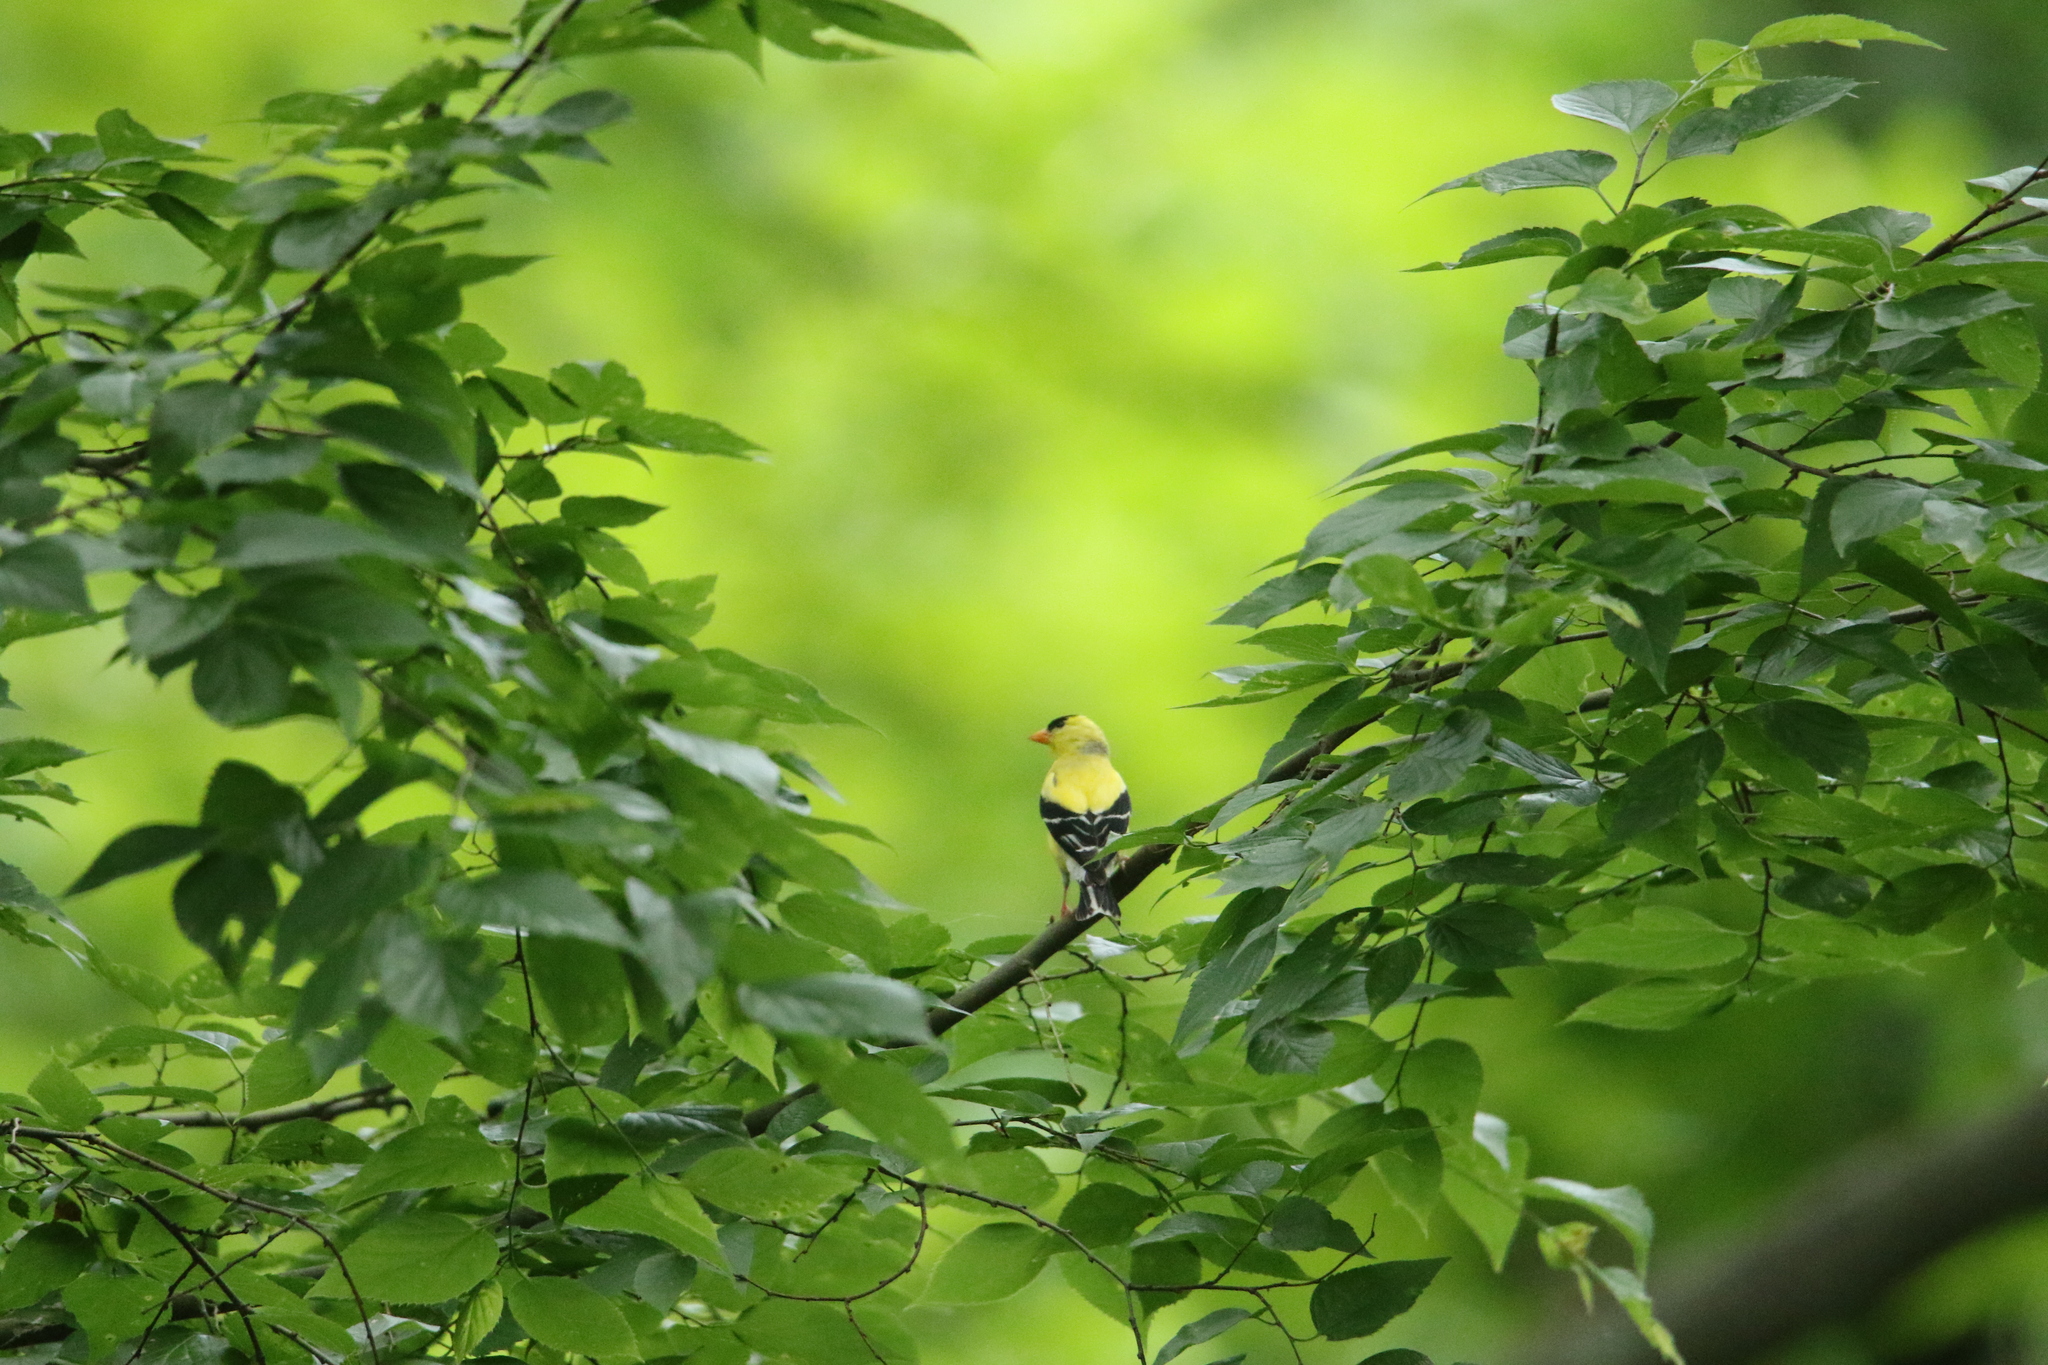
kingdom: Animalia
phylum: Chordata
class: Aves
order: Passeriformes
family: Fringillidae
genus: Spinus
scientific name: Spinus tristis
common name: American goldfinch
